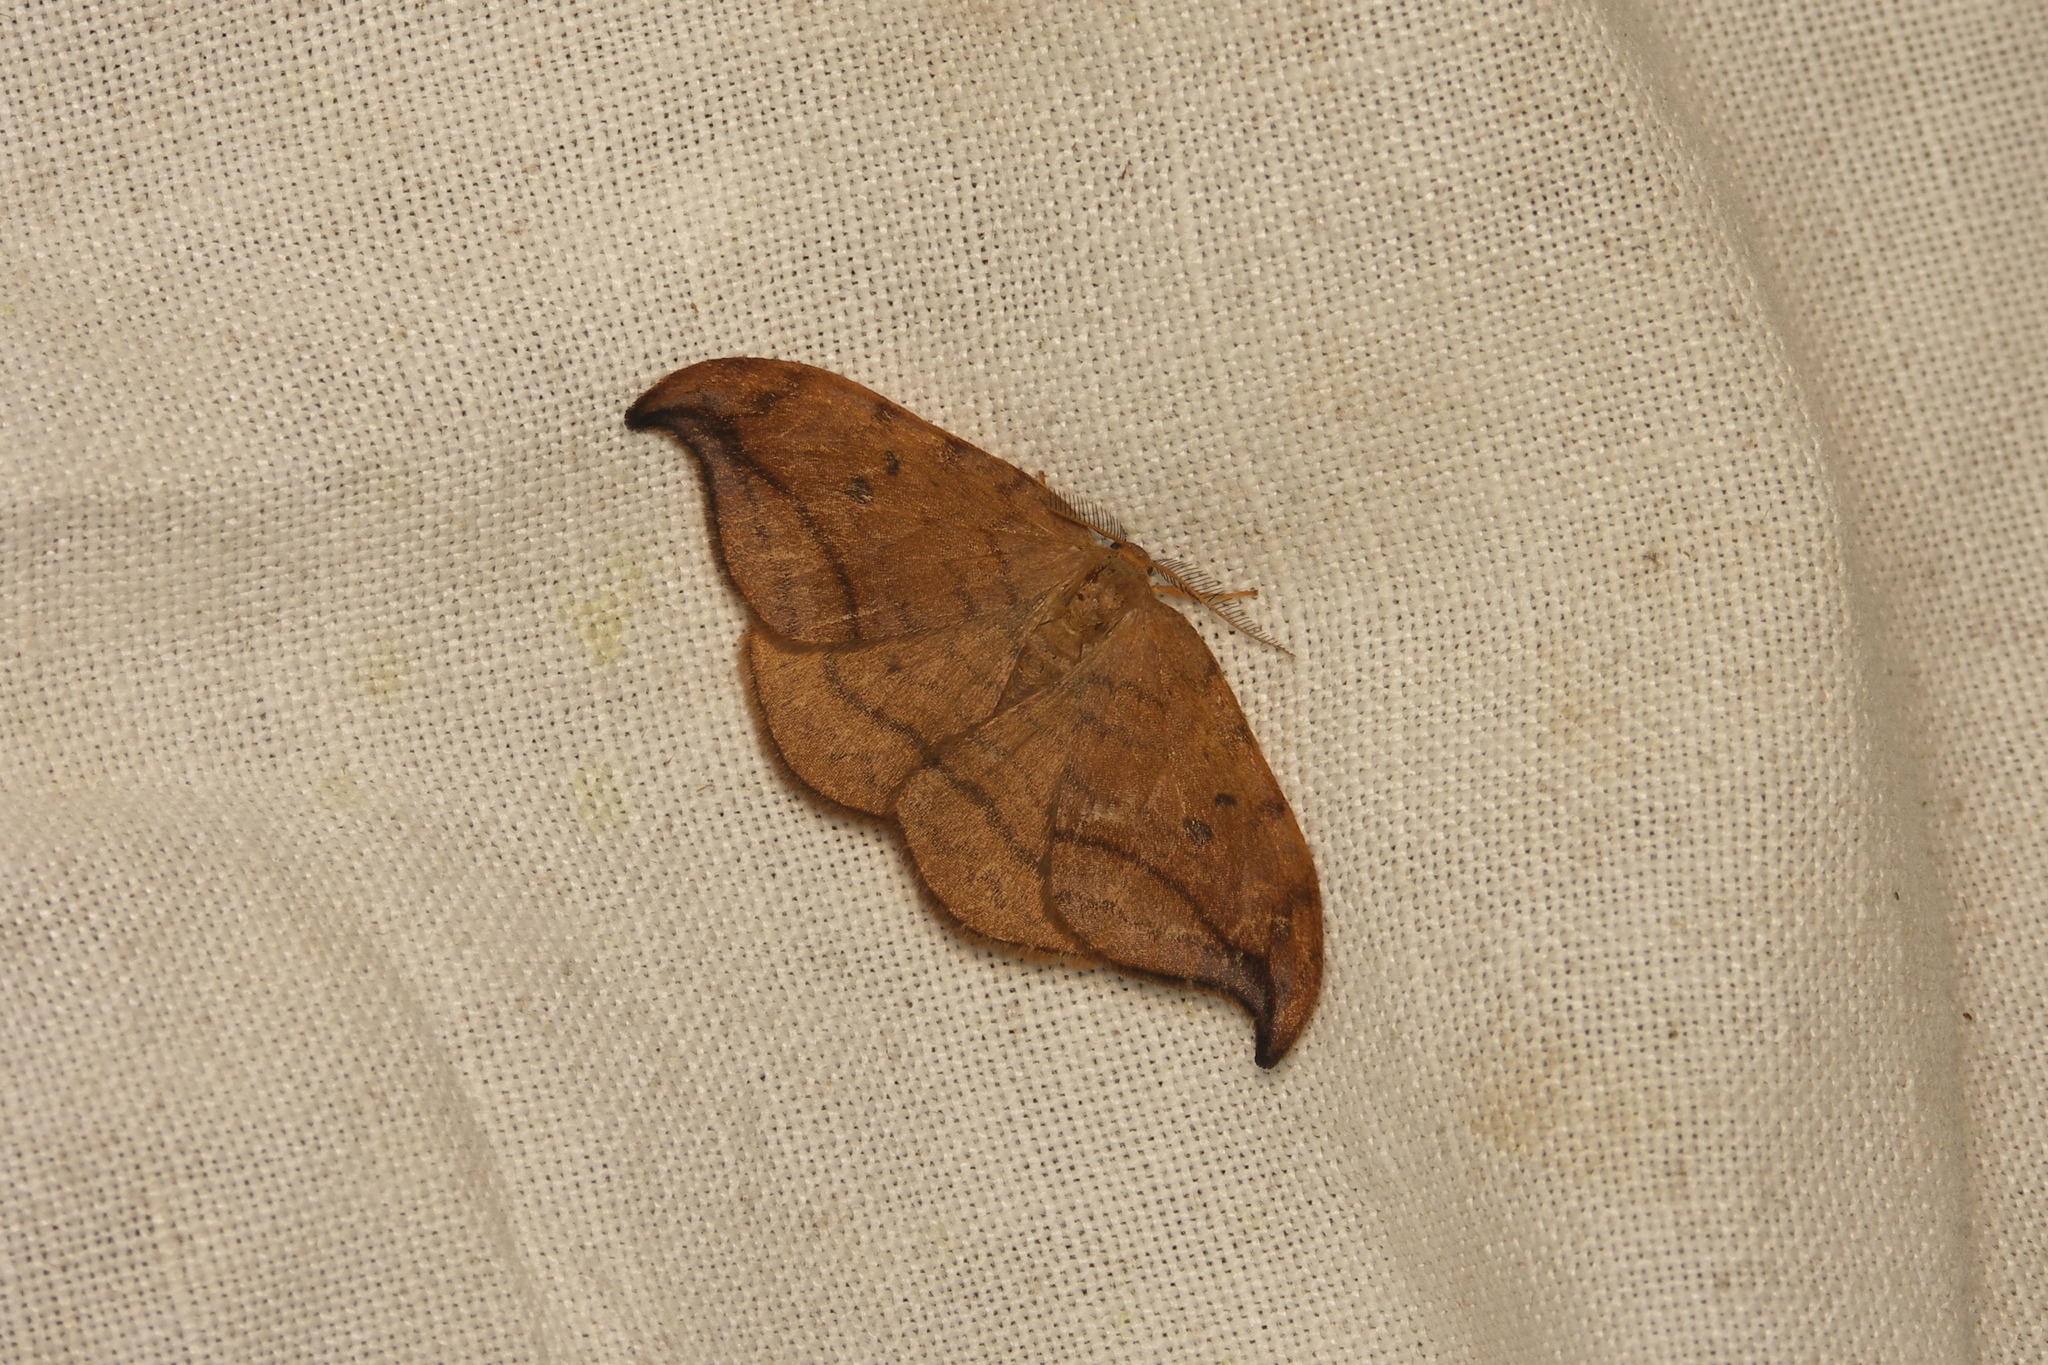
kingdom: Animalia
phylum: Arthropoda
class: Insecta
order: Lepidoptera
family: Drepanidae
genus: Drepana
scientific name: Drepana curvatula
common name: Dusky hook-tip
